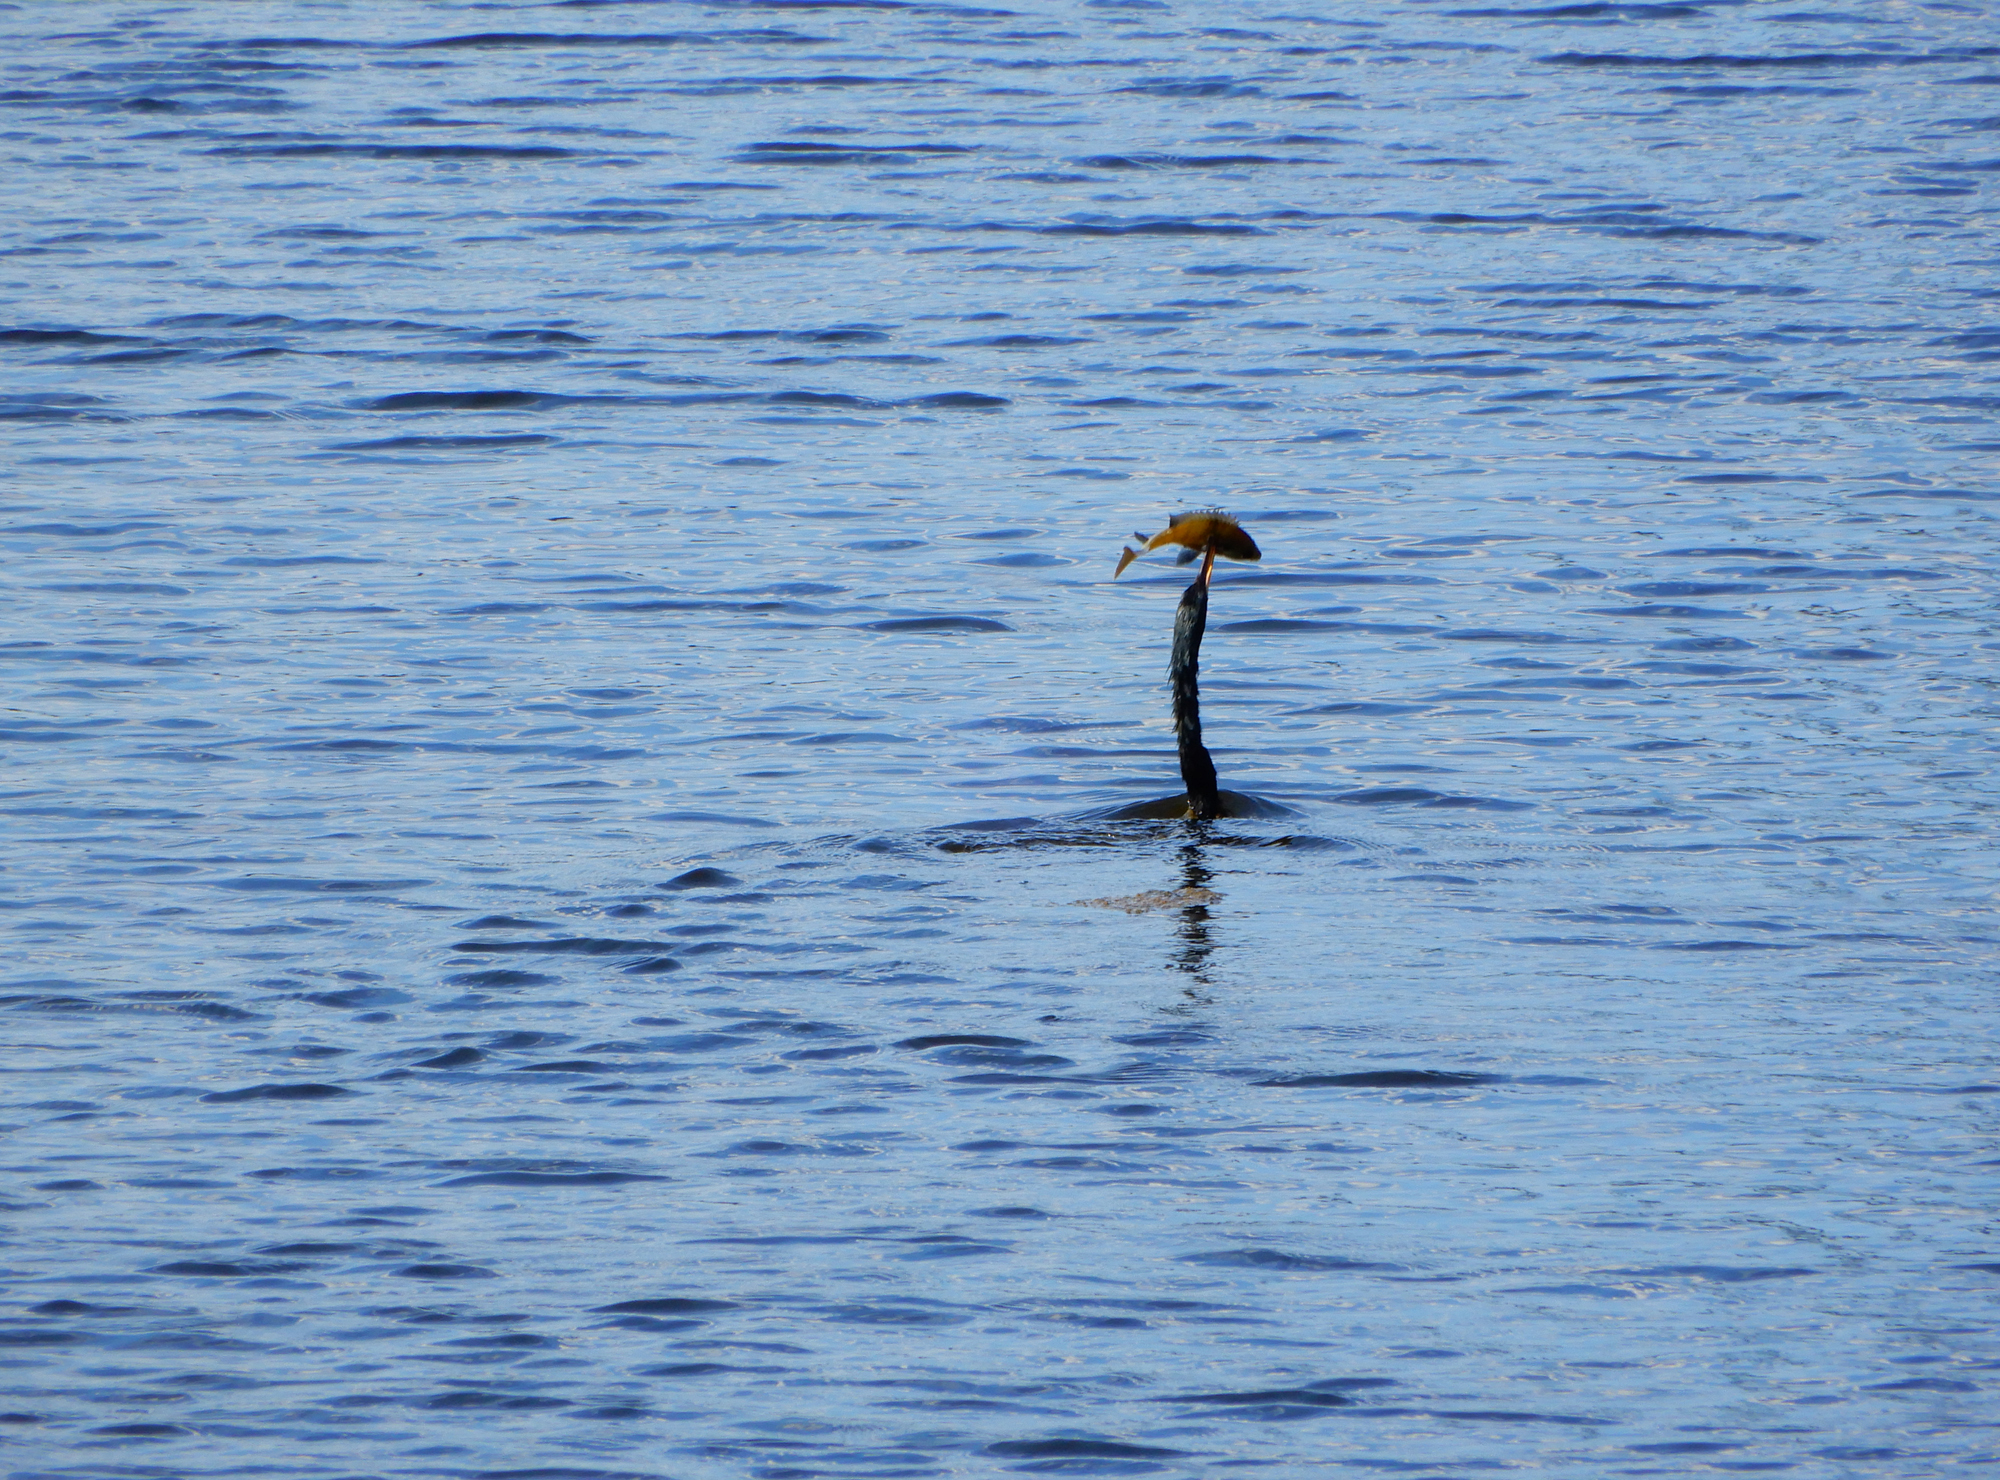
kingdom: Animalia
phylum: Chordata
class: Aves
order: Suliformes
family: Anhingidae
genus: Anhinga
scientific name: Anhinga anhinga
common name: Anhinga
